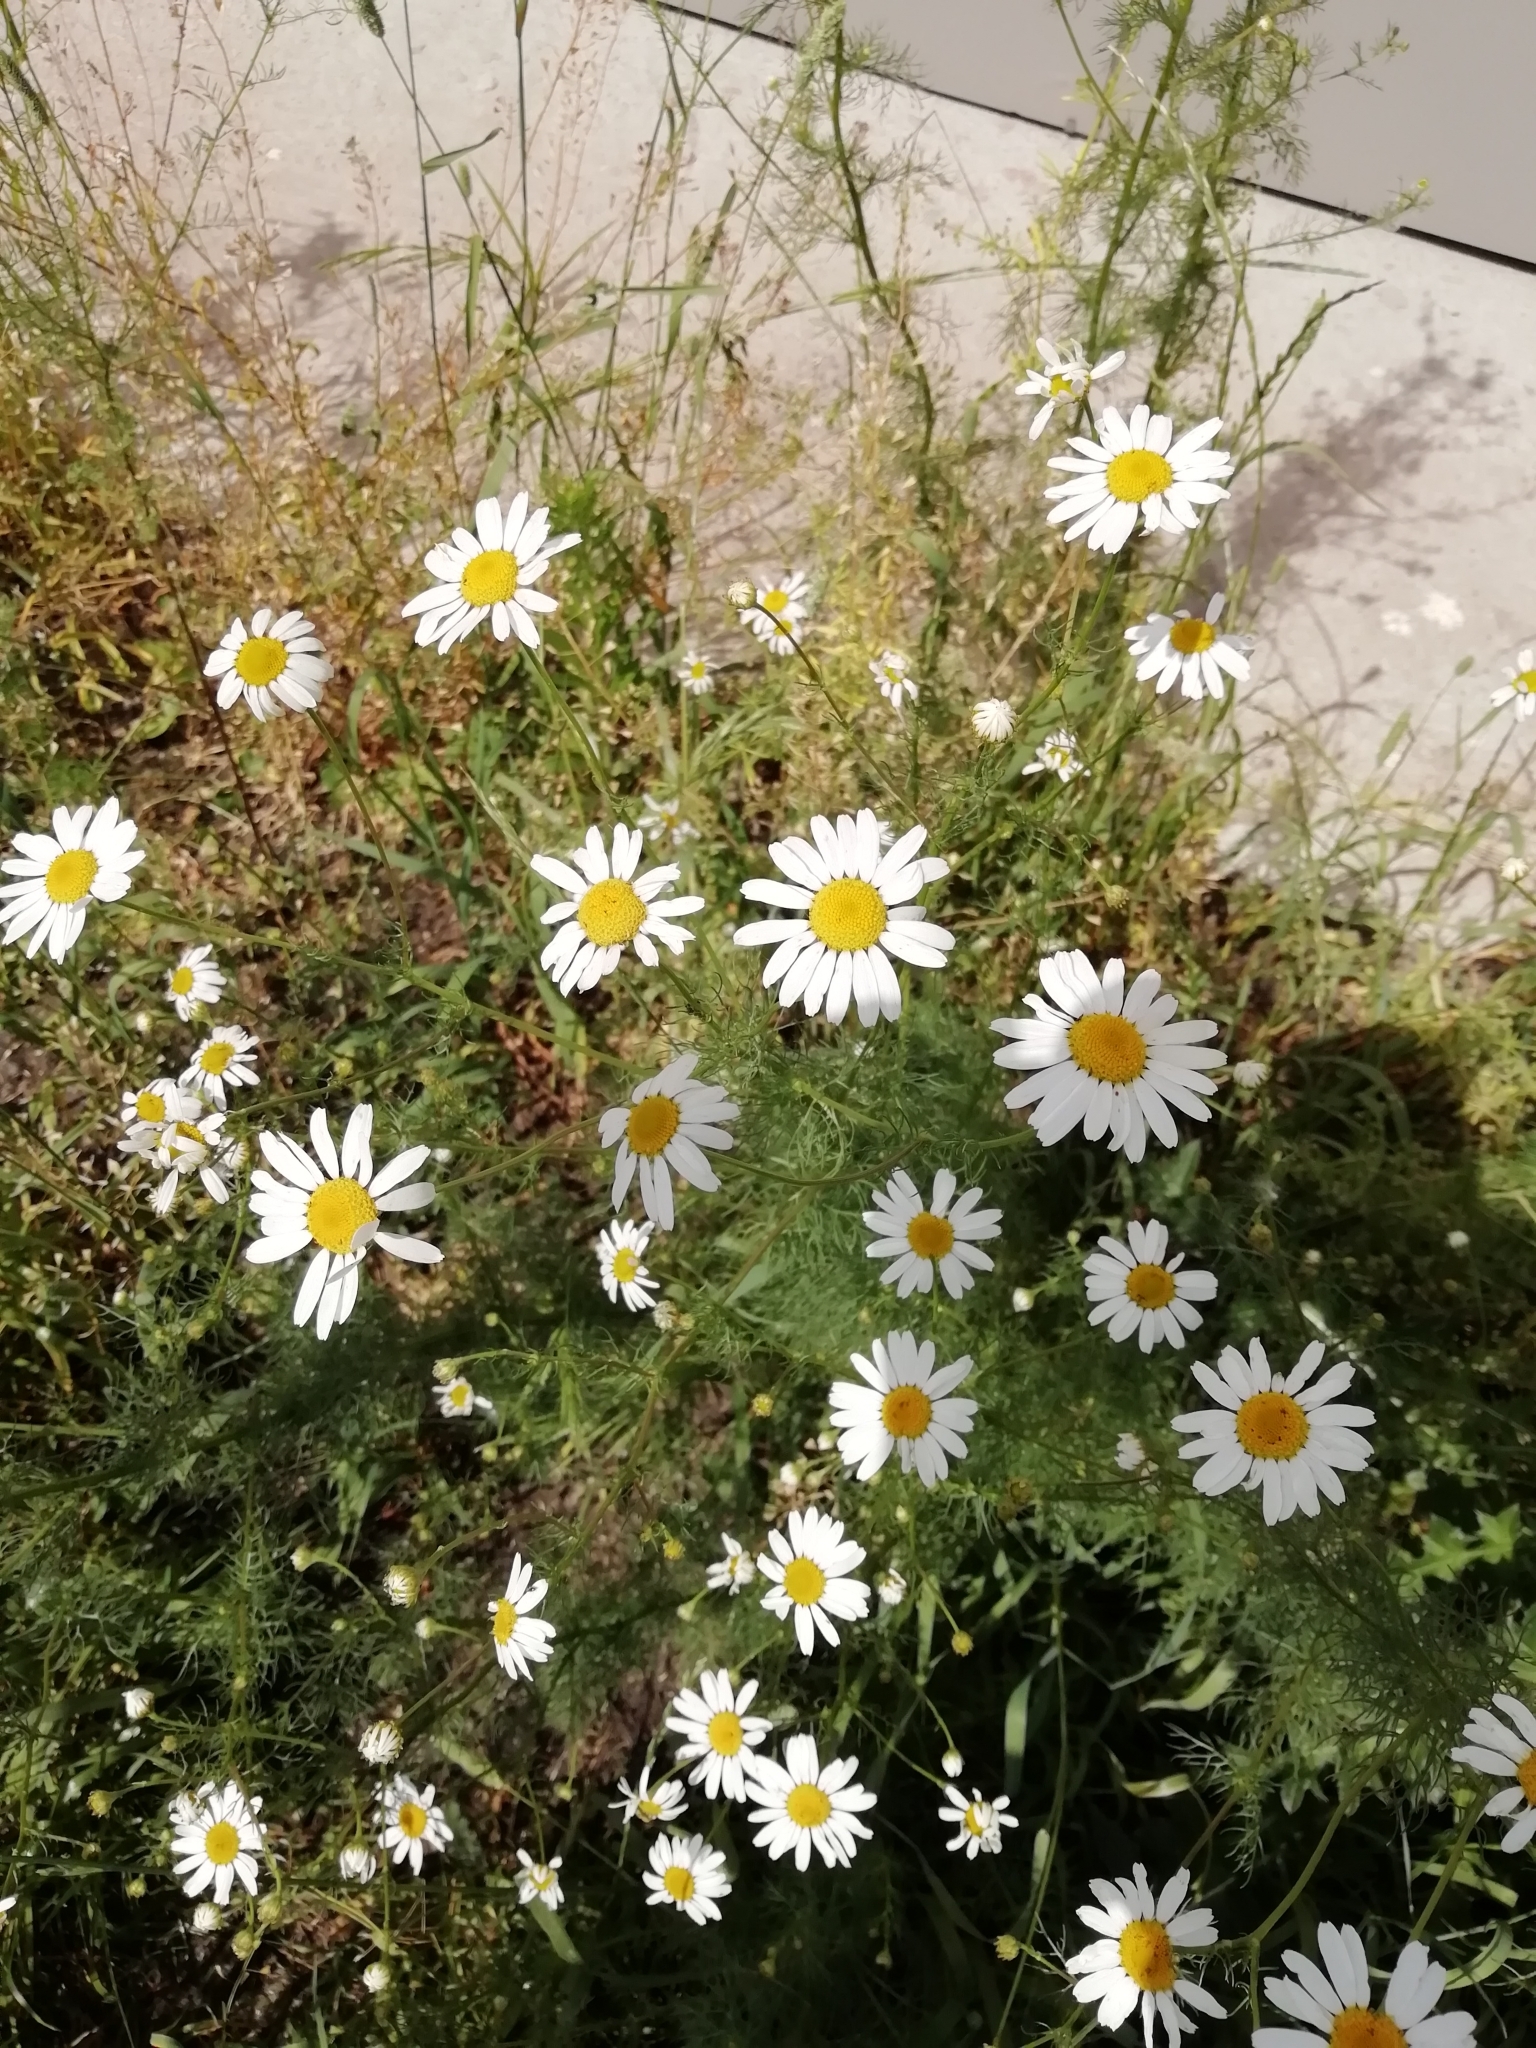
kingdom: Plantae
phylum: Tracheophyta
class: Magnoliopsida
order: Asterales
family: Asteraceae
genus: Tripleurospermum
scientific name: Tripleurospermum inodorum
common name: Scentless mayweed
